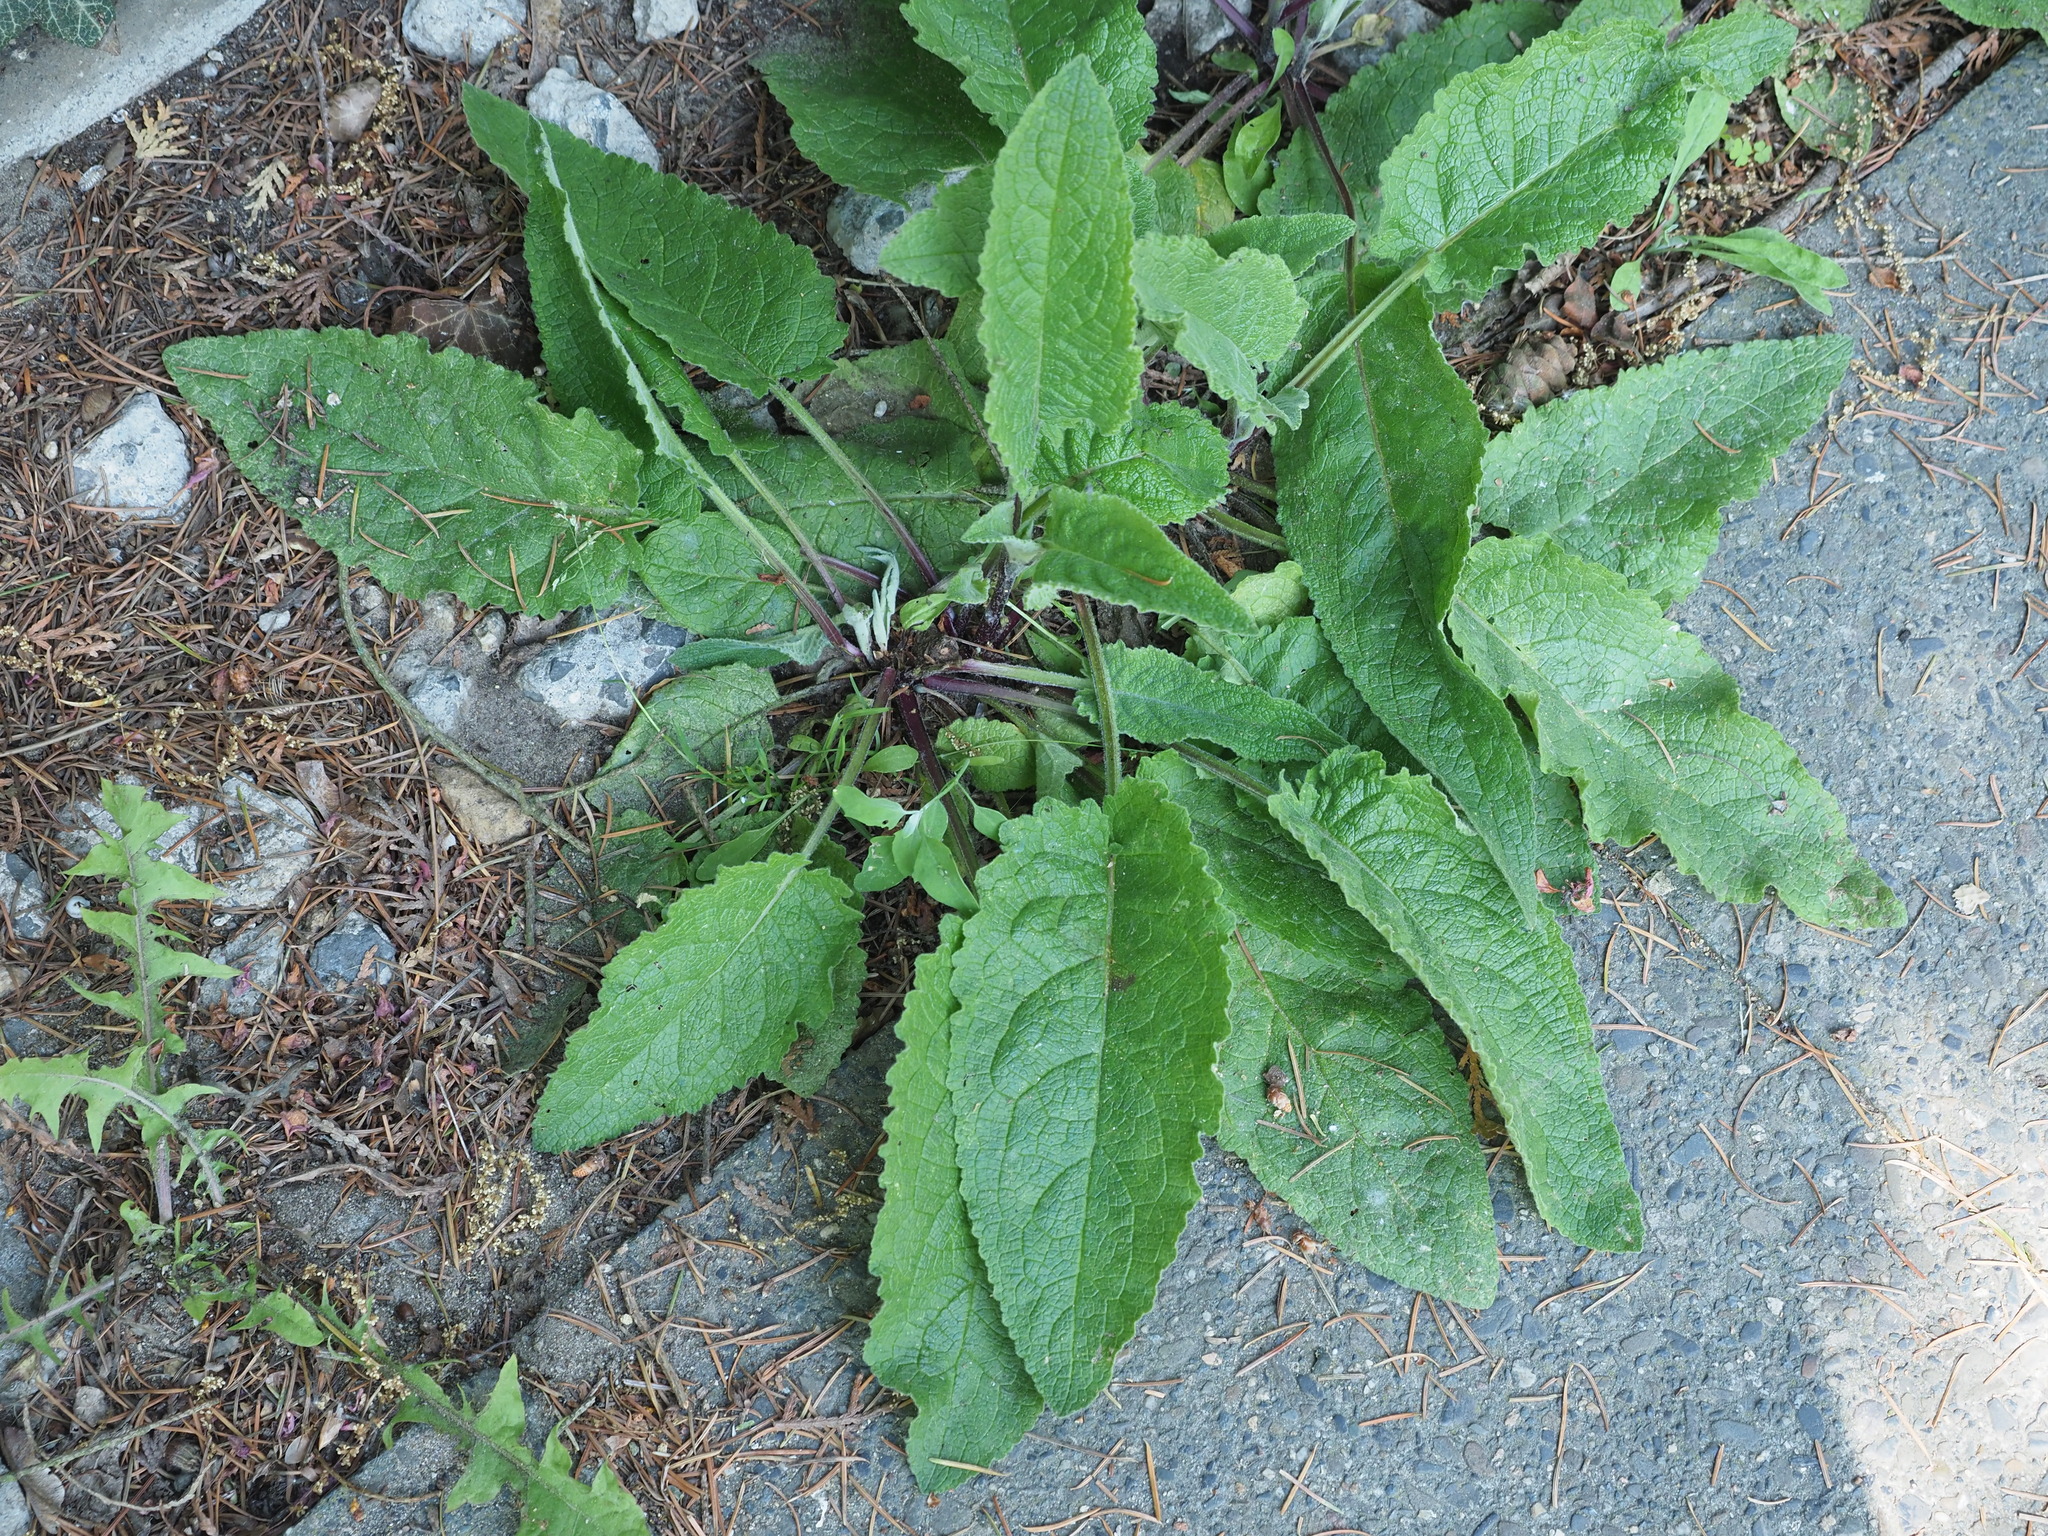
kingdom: Plantae
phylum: Tracheophyta
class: Magnoliopsida
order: Lamiales
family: Plantaginaceae
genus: Digitalis
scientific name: Digitalis purpurea
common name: Foxglove
